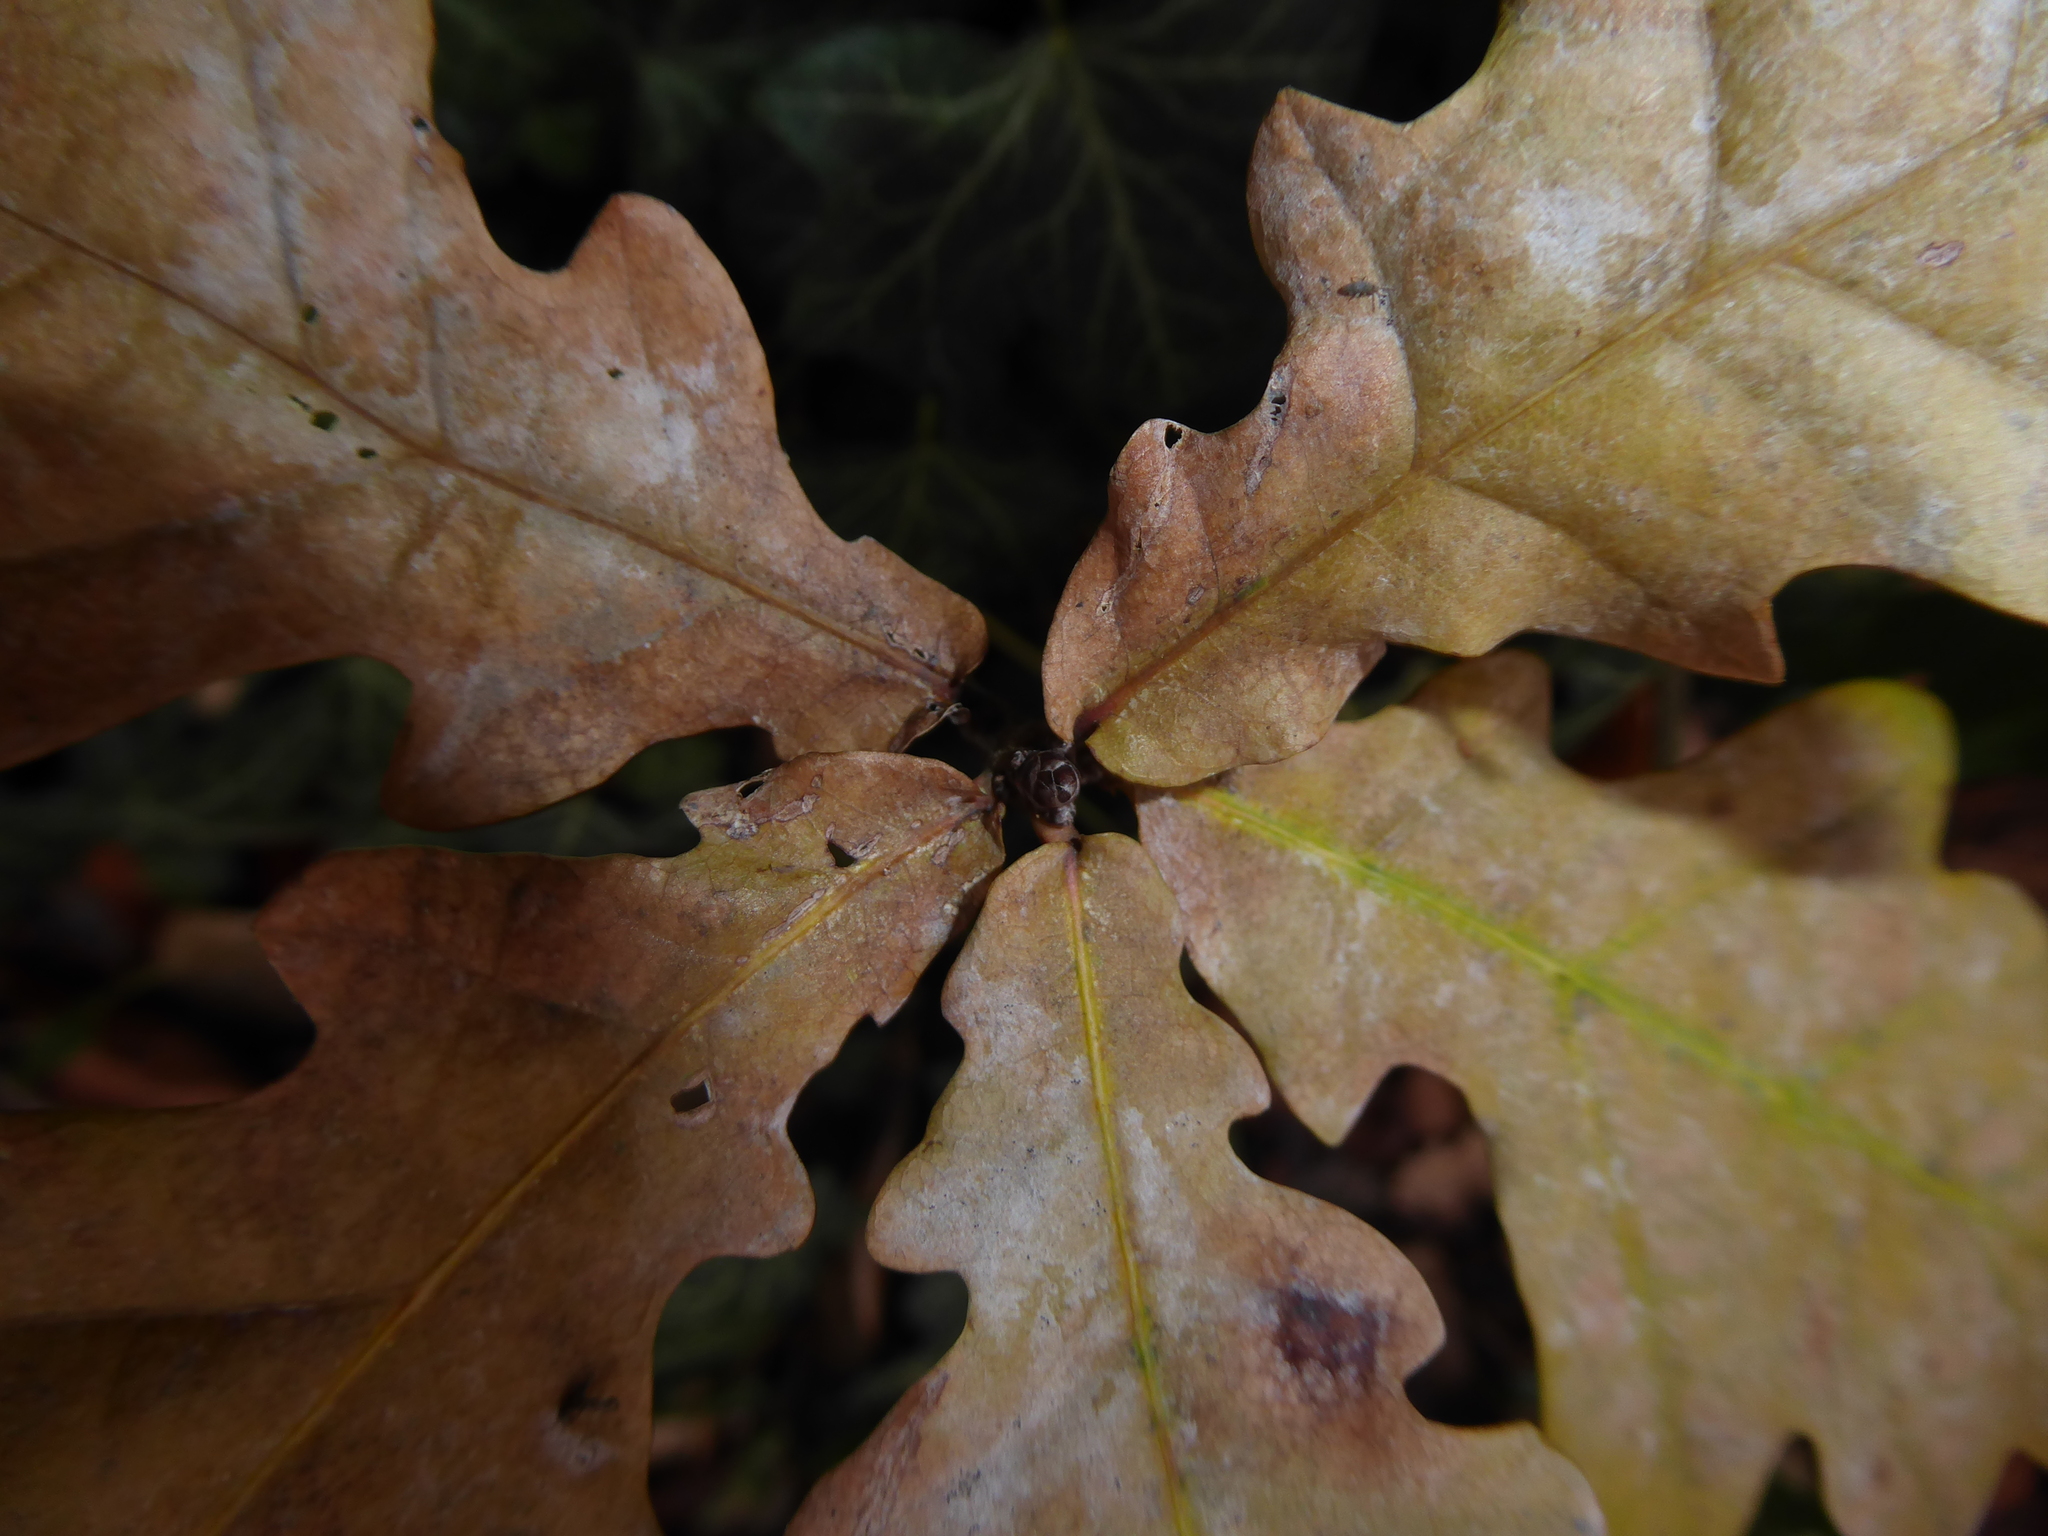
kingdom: Plantae
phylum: Tracheophyta
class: Magnoliopsida
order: Fagales
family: Fagaceae
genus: Quercus
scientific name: Quercus robur
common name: Pedunculate oak
